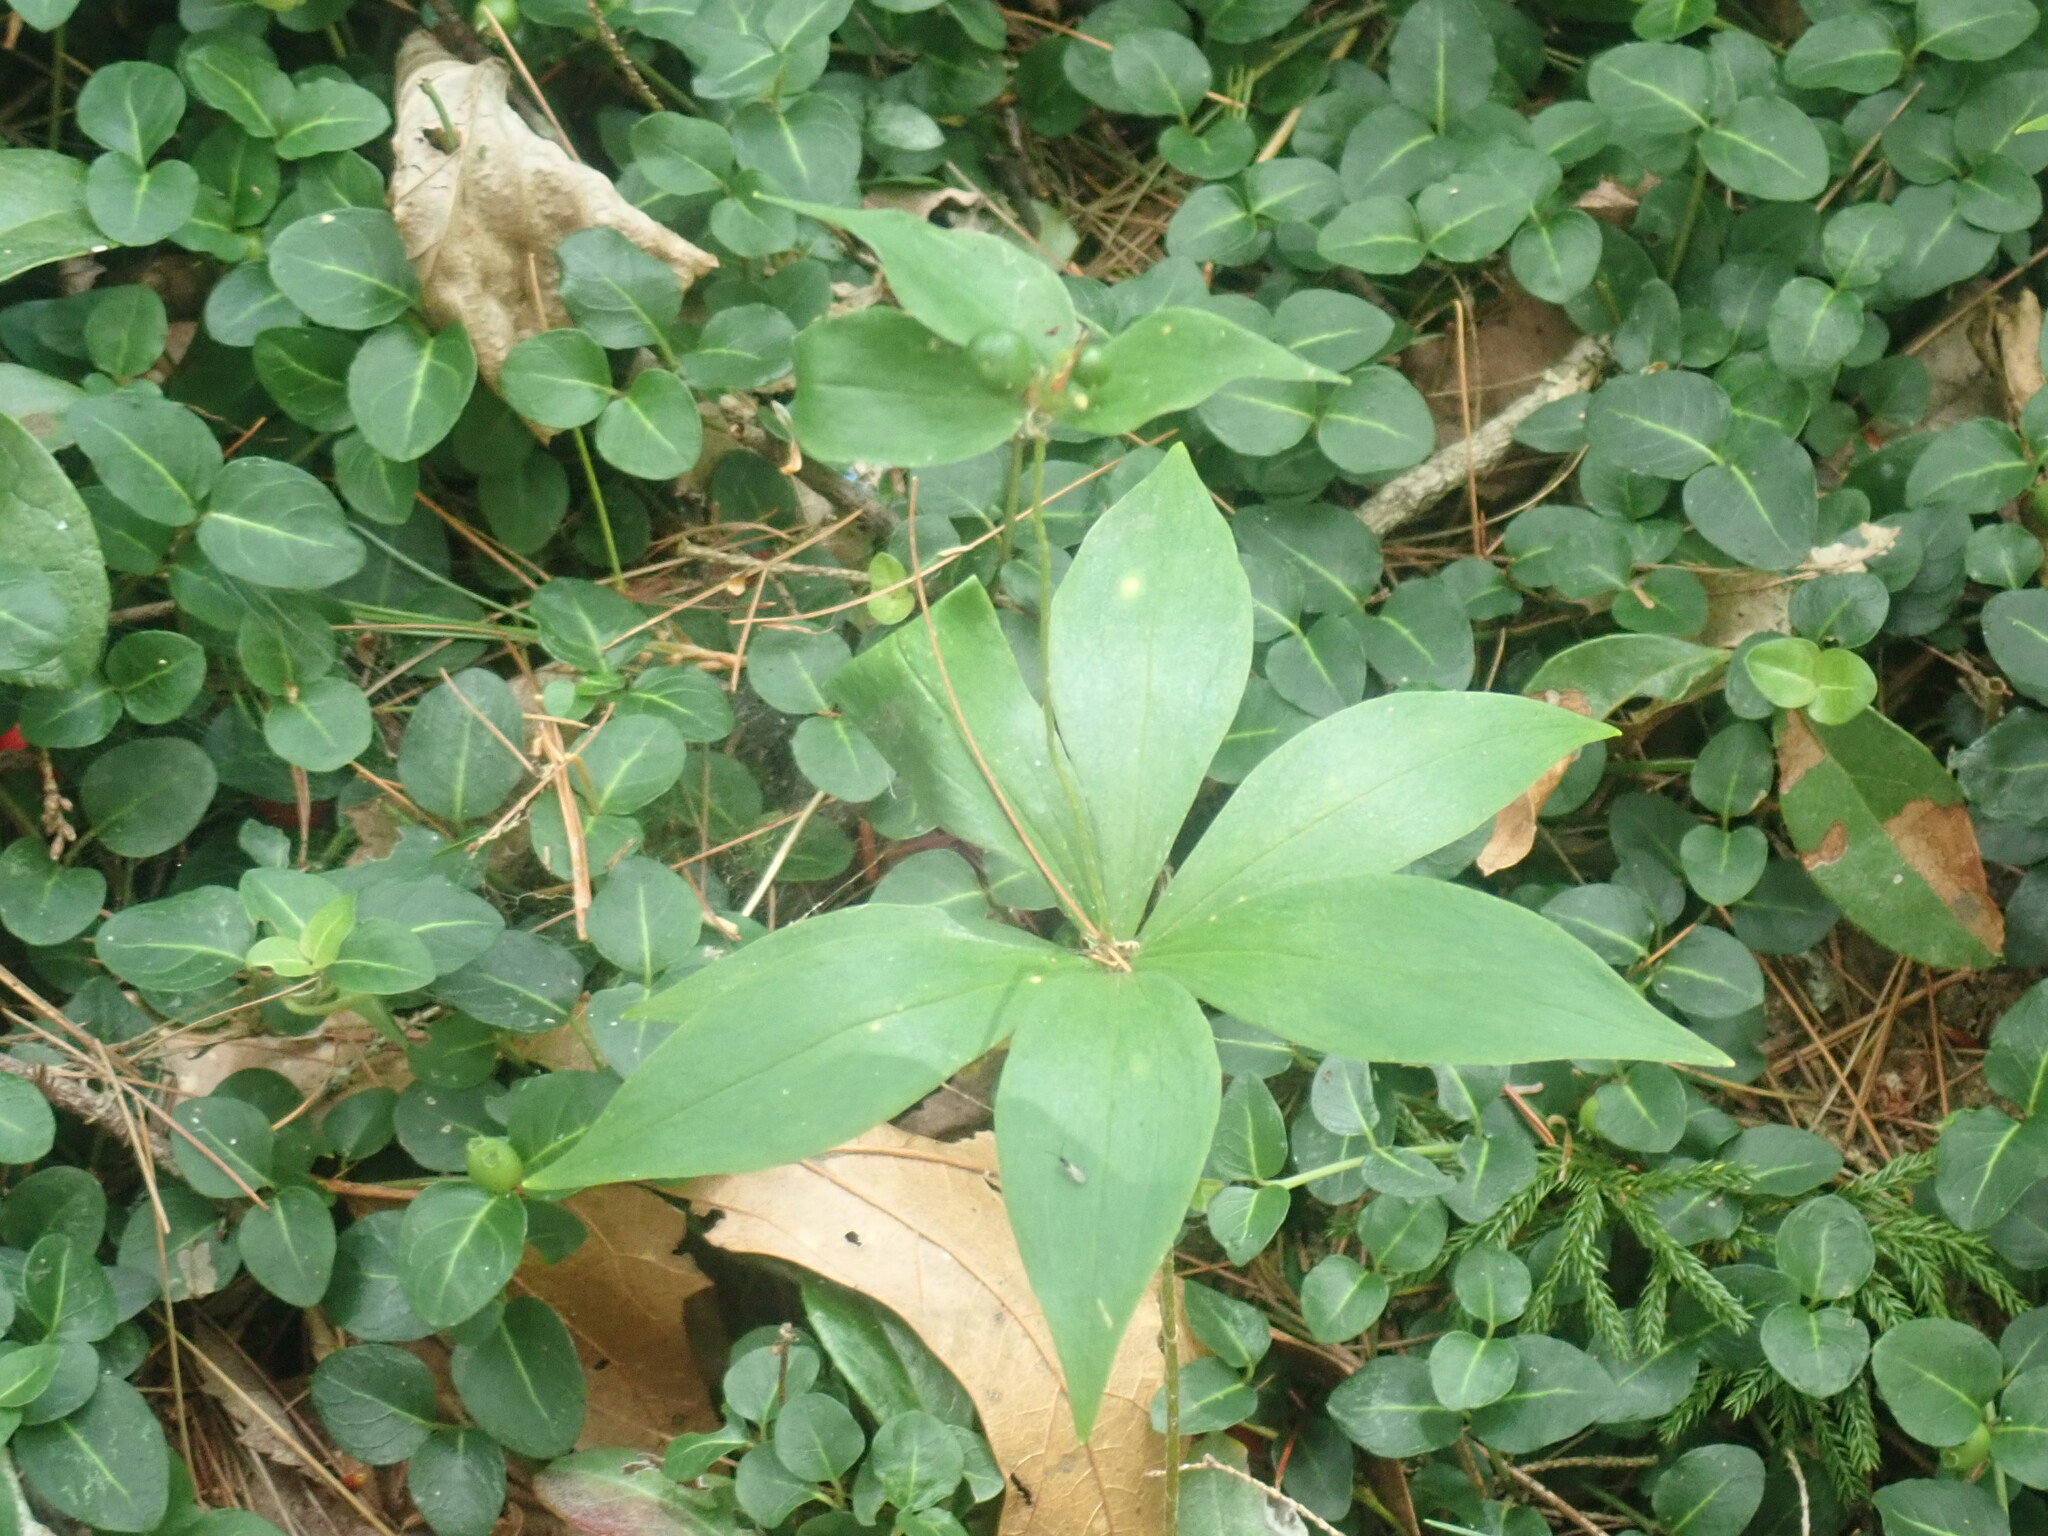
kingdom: Plantae
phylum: Tracheophyta
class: Liliopsida
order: Liliales
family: Liliaceae
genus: Medeola
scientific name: Medeola virginiana
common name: Indian cucumber-root
